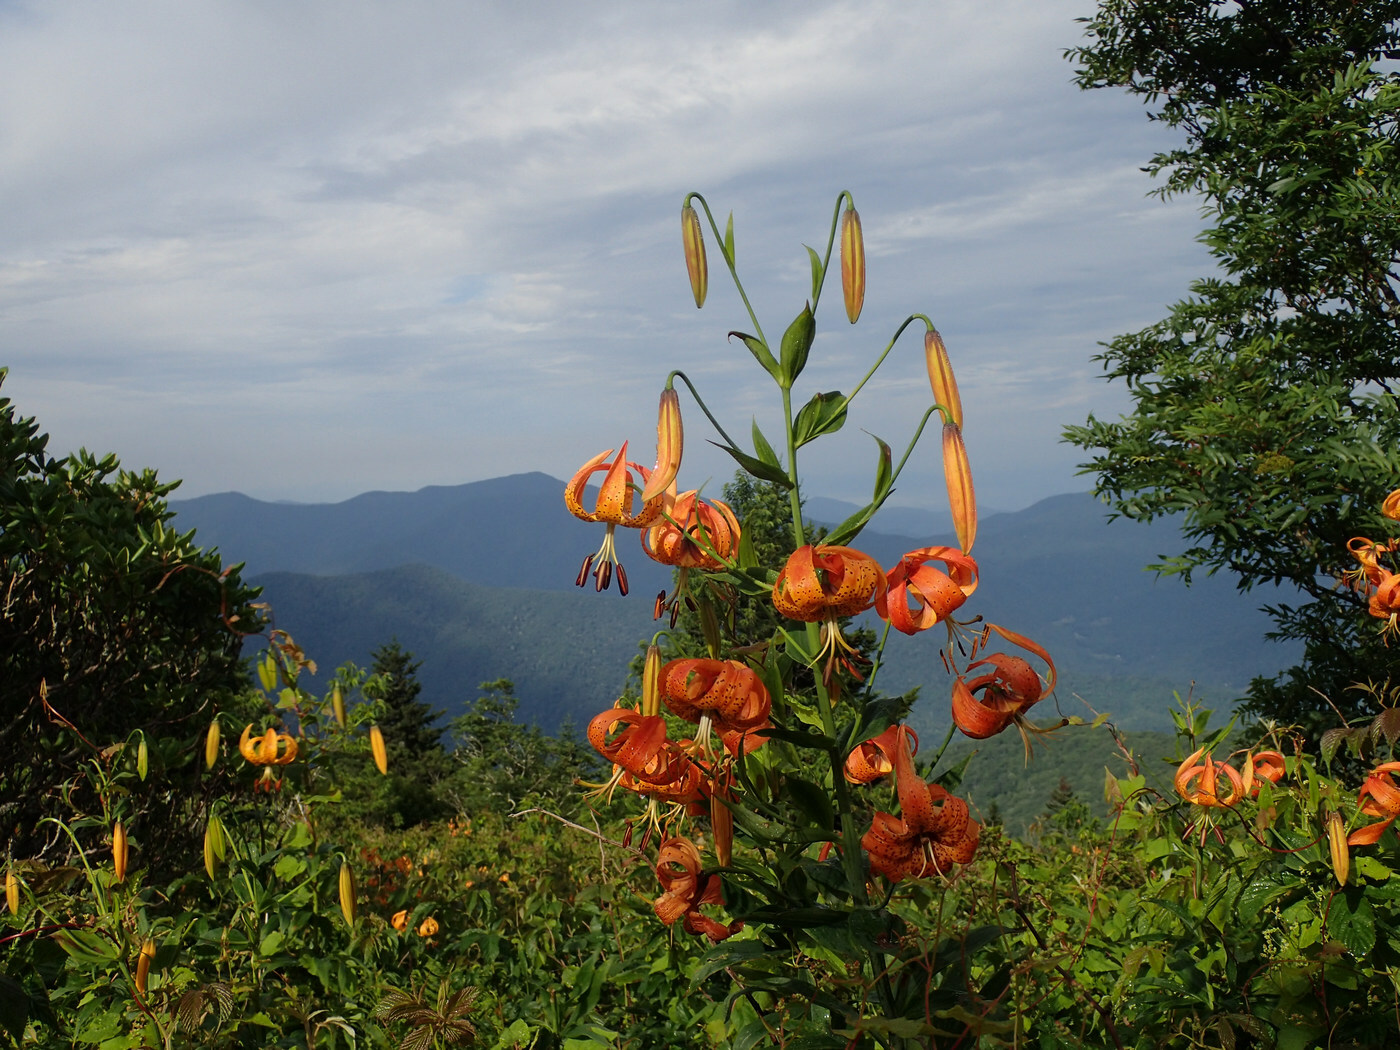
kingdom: Plantae
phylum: Tracheophyta
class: Liliopsida
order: Liliales
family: Liliaceae
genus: Lilium
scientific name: Lilium superbum
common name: American turk's-cap lily
